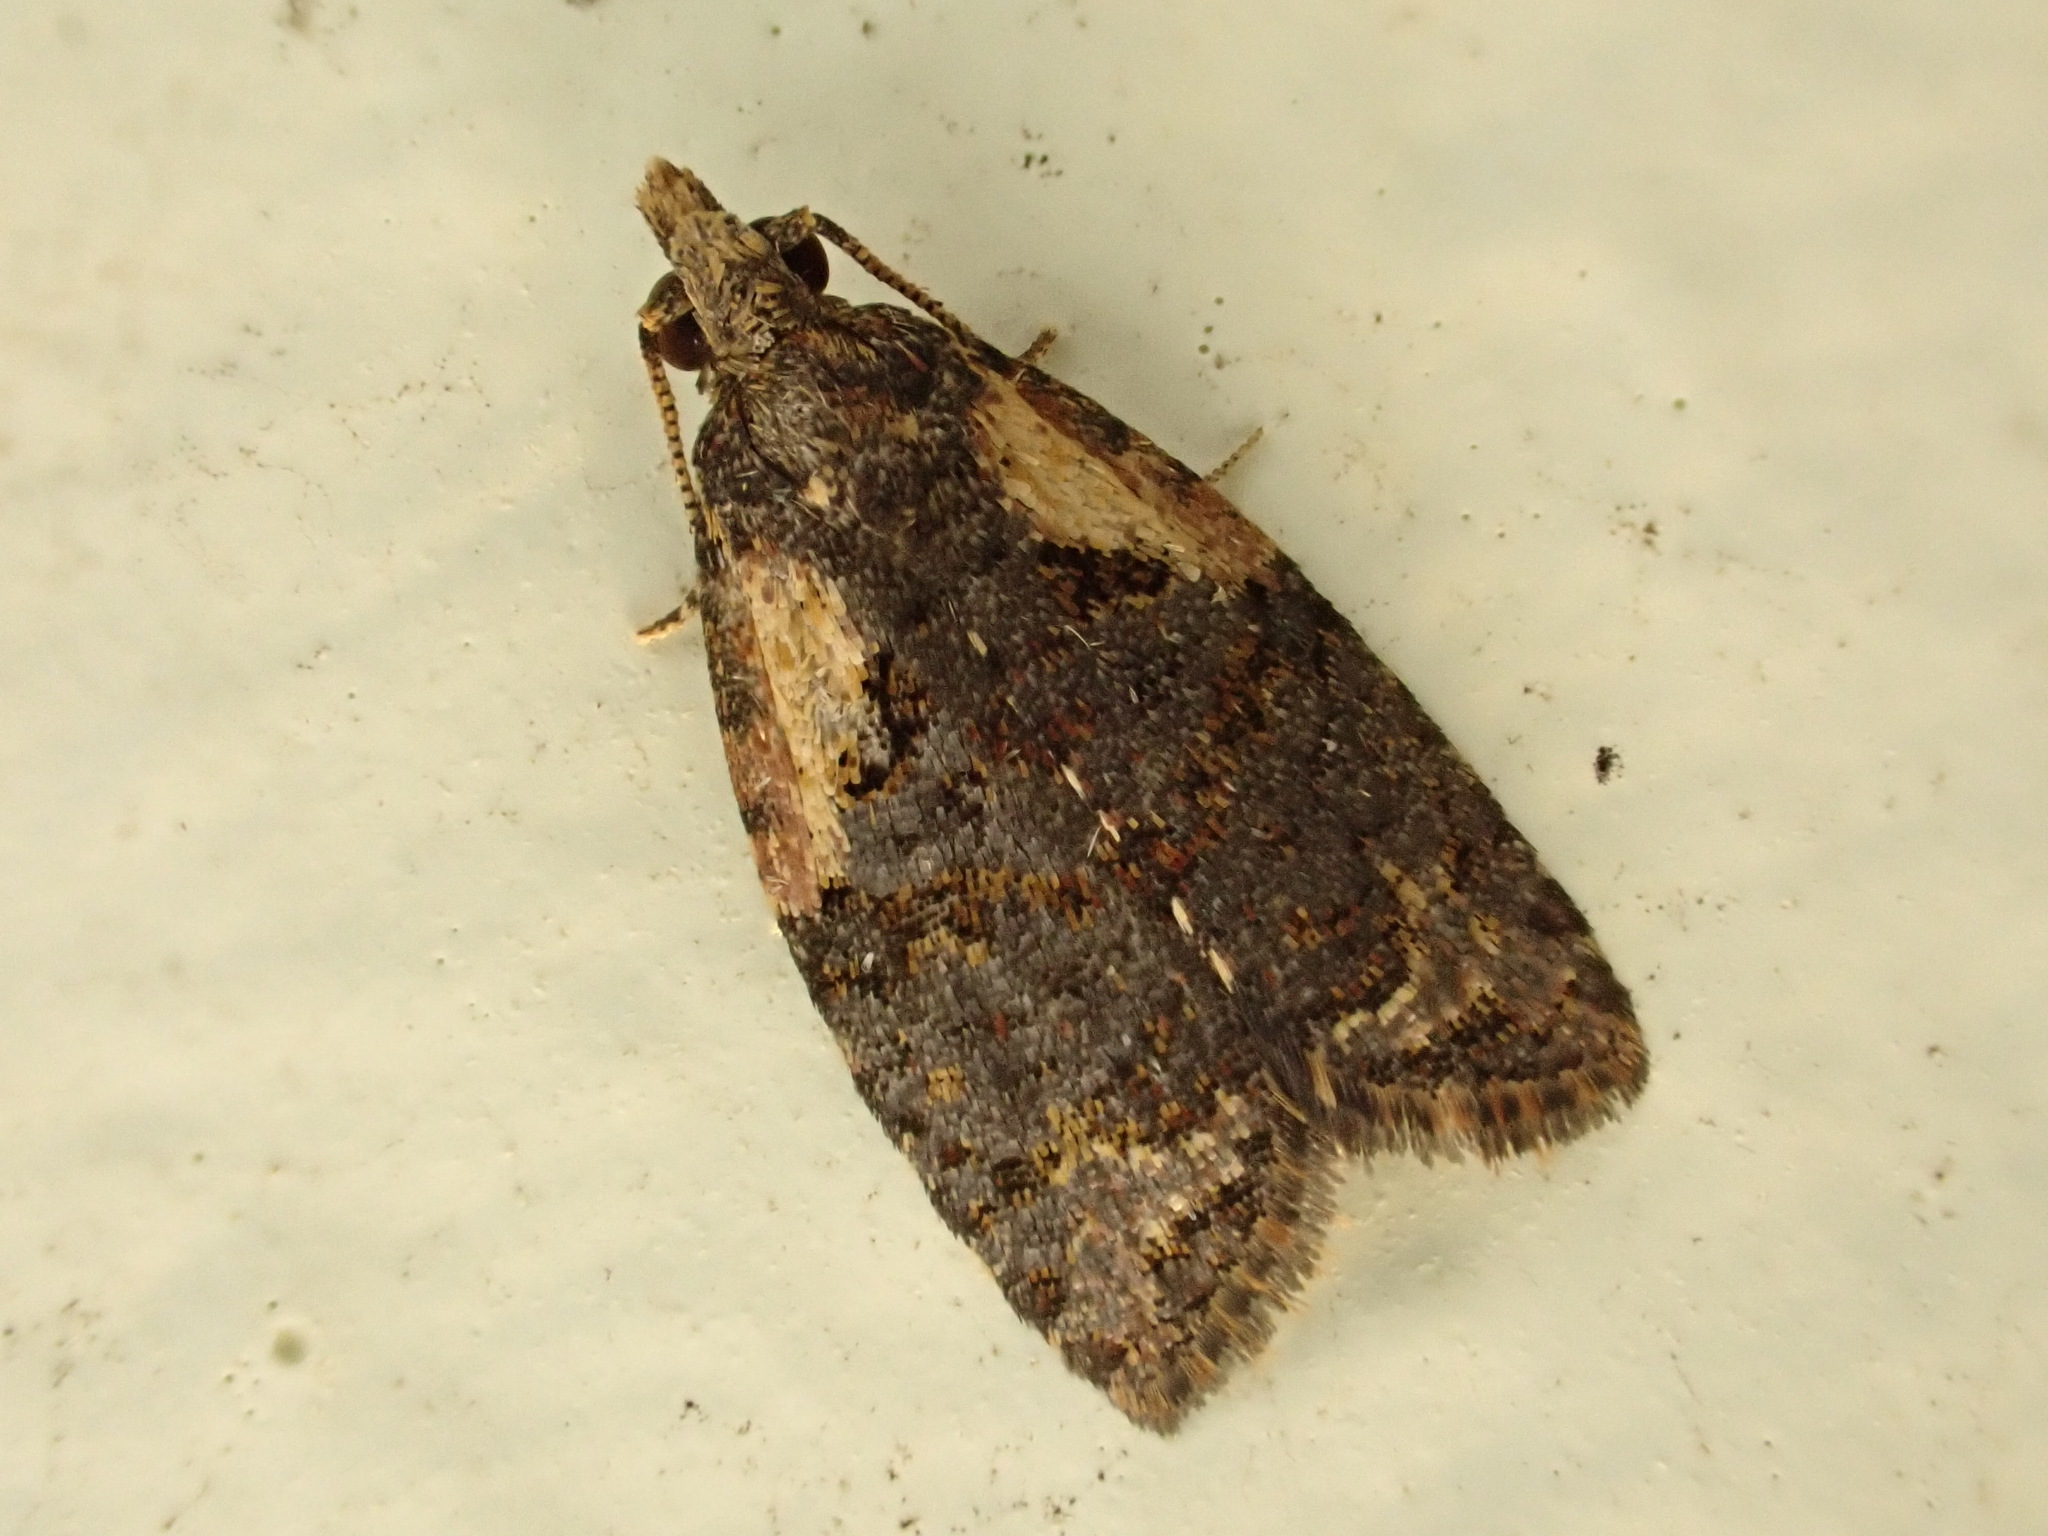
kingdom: Animalia
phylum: Arthropoda
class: Insecta
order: Lepidoptera
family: Tortricidae
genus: Capua
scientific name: Capua intractana
